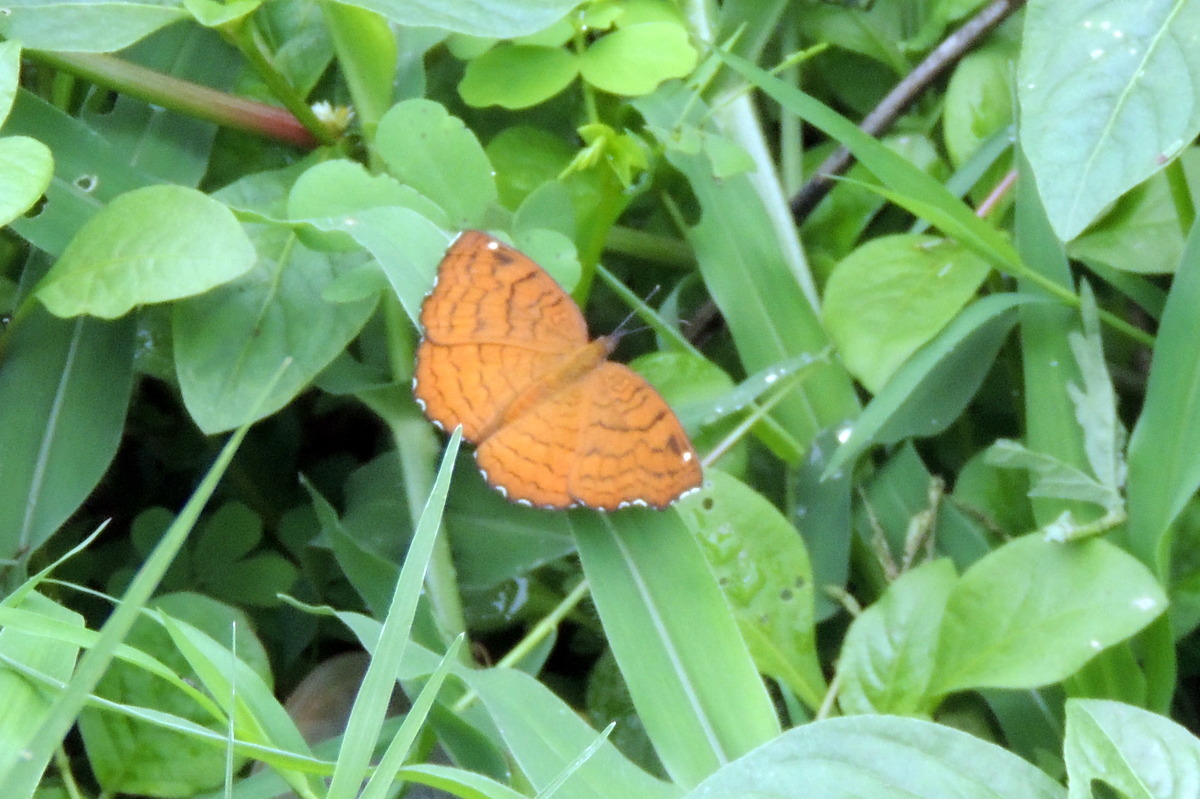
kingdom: Animalia
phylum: Arthropoda
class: Insecta
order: Lepidoptera
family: Nymphalidae
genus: Ariadne
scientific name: Ariadne ariadne
